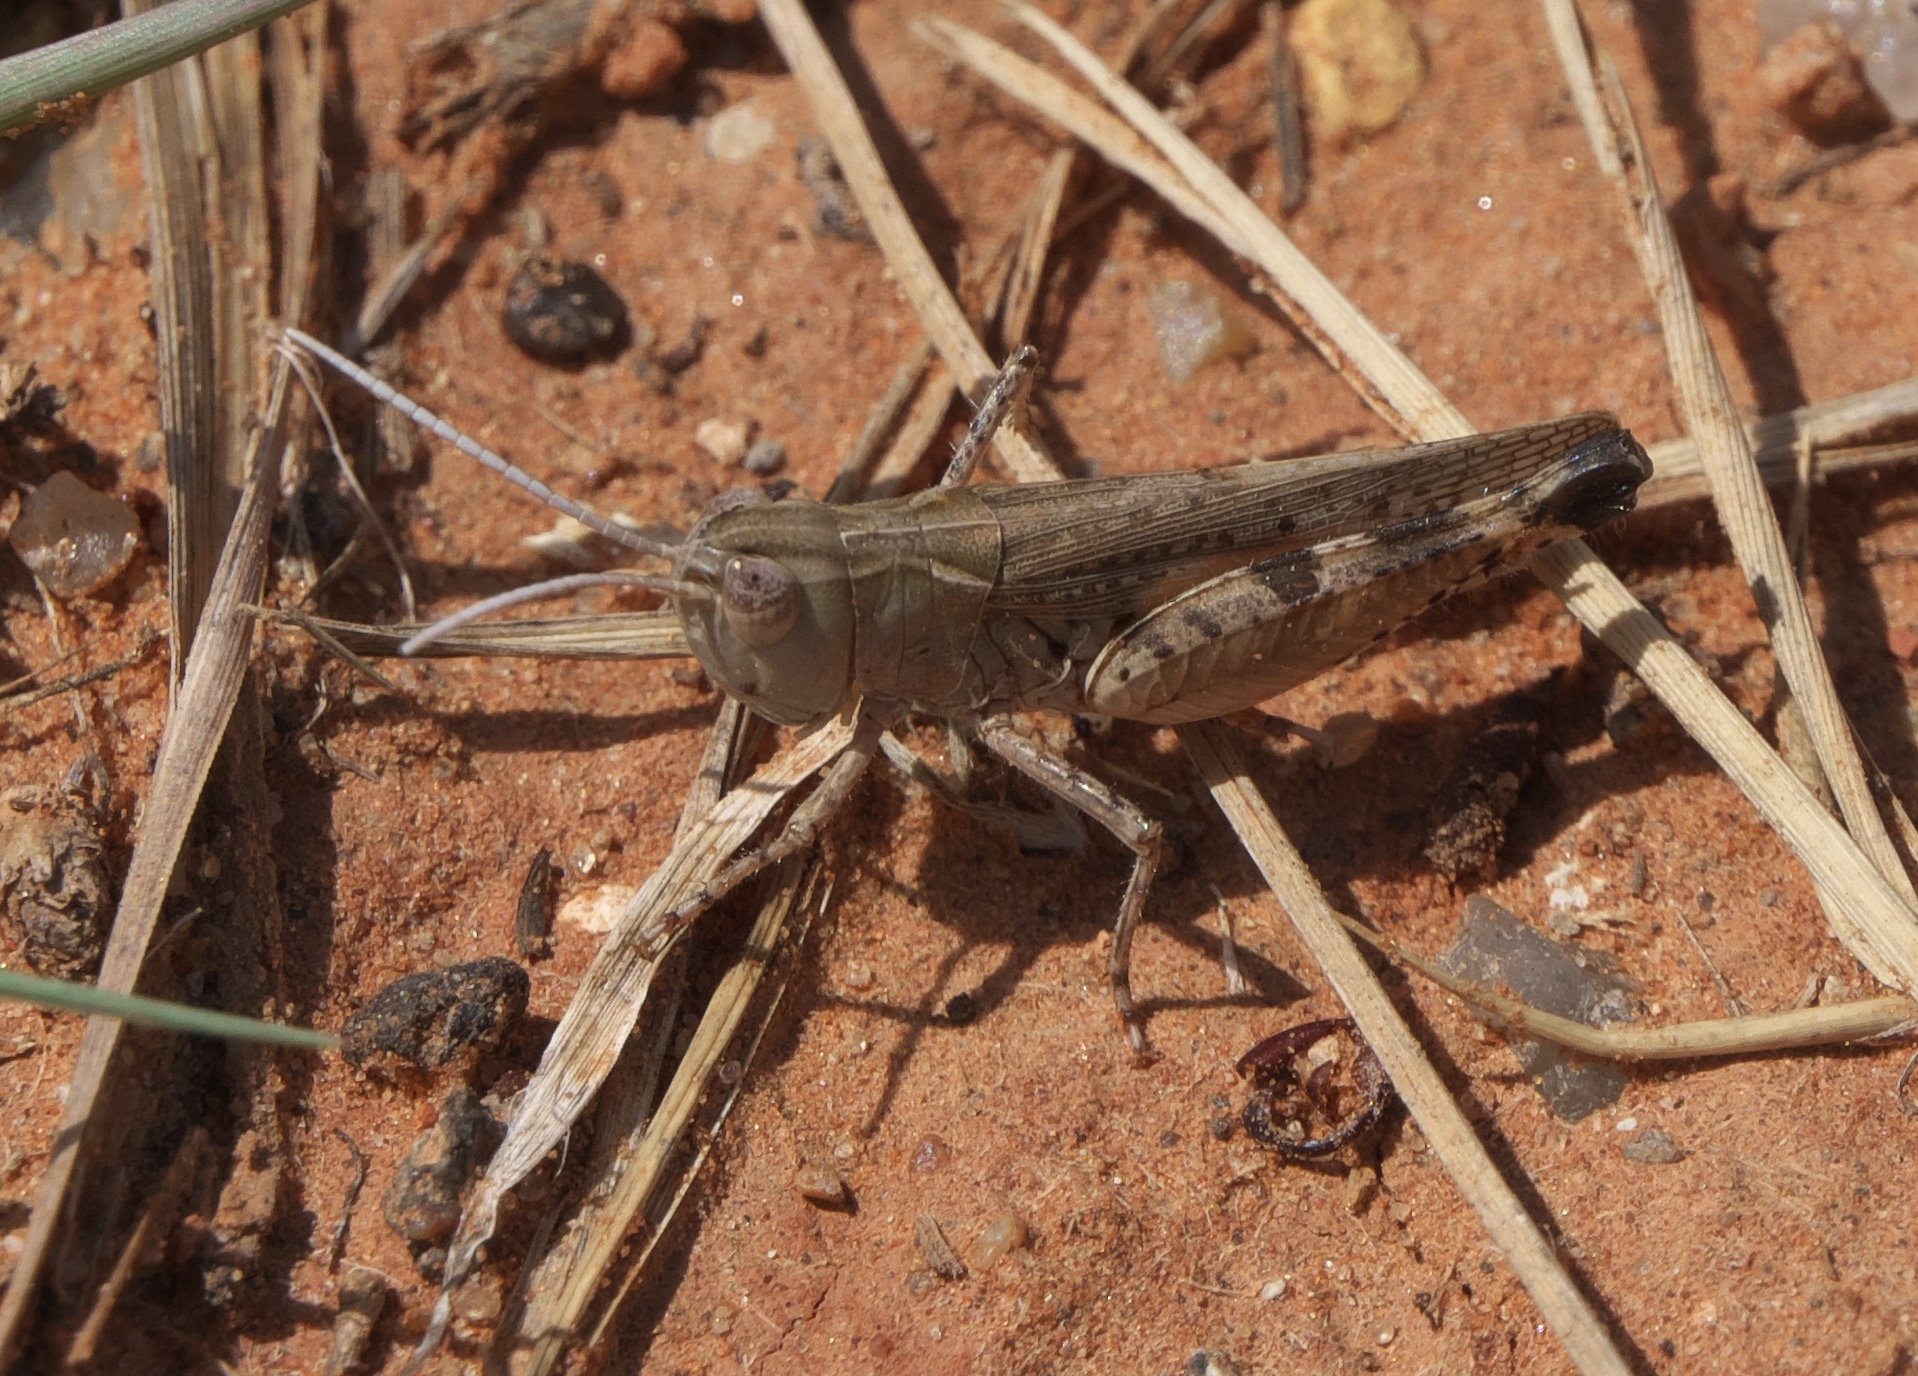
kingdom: Animalia
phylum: Arthropoda
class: Insecta
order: Orthoptera
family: Acrididae
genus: Ageneotettix
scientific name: Ageneotettix deorum
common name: White-whiskered grasshopper
